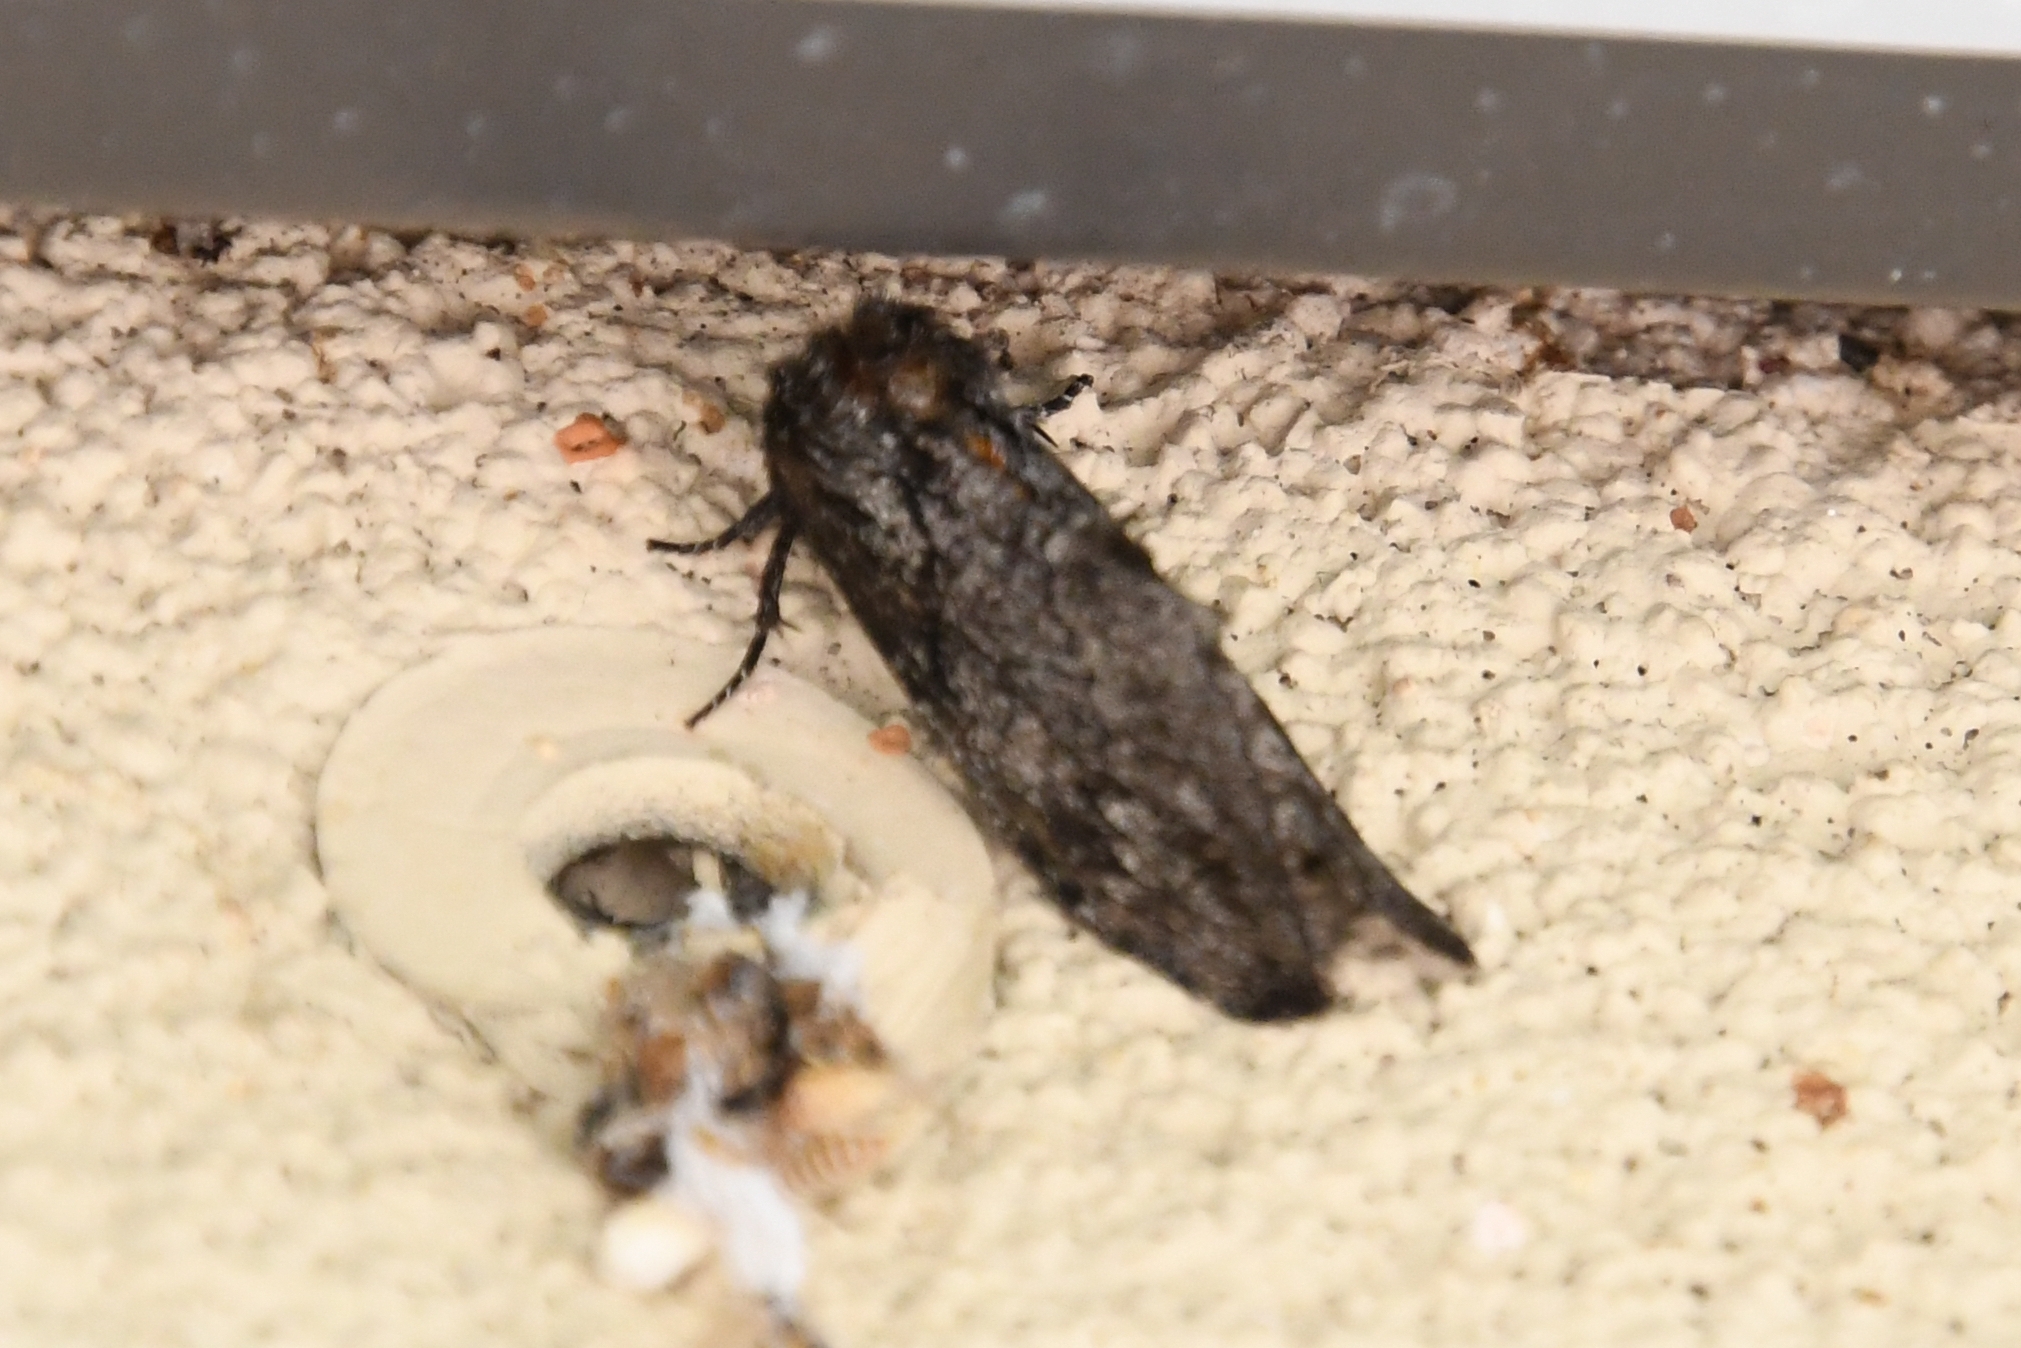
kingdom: Animalia
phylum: Arthropoda
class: Insecta
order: Lepidoptera
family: Notodontidae
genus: Cargida
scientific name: Cargida pyrrha
